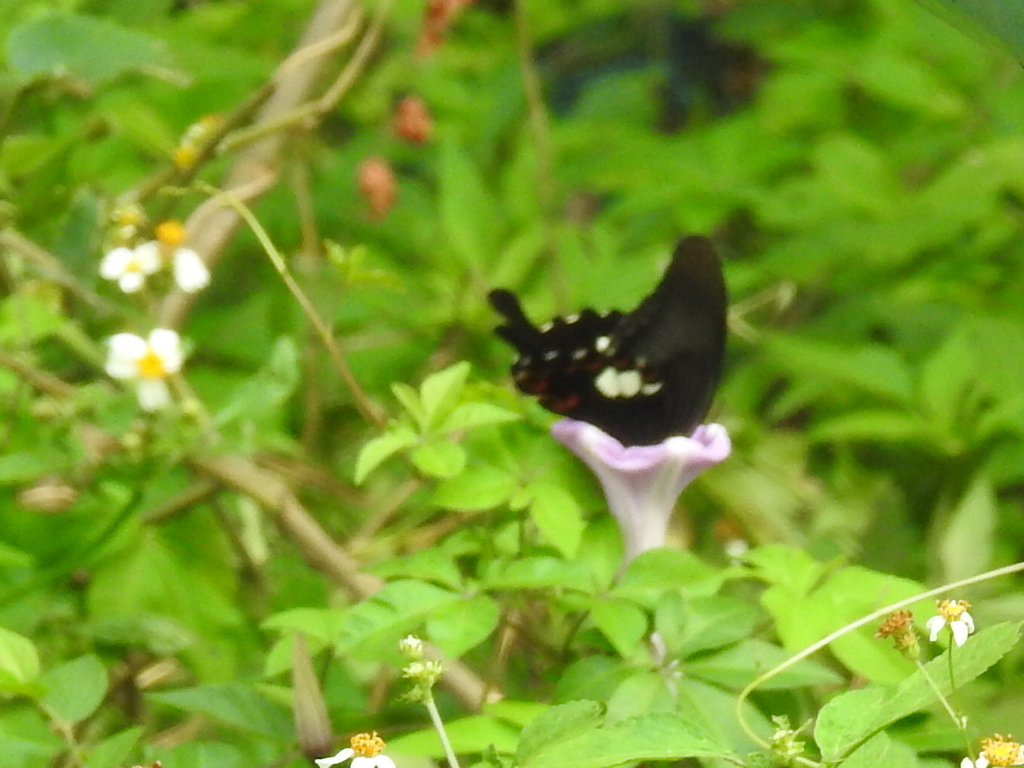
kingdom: Animalia
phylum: Arthropoda
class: Insecta
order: Lepidoptera
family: Papilionidae
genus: Papilio
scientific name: Papilio helenus
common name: Red helen
